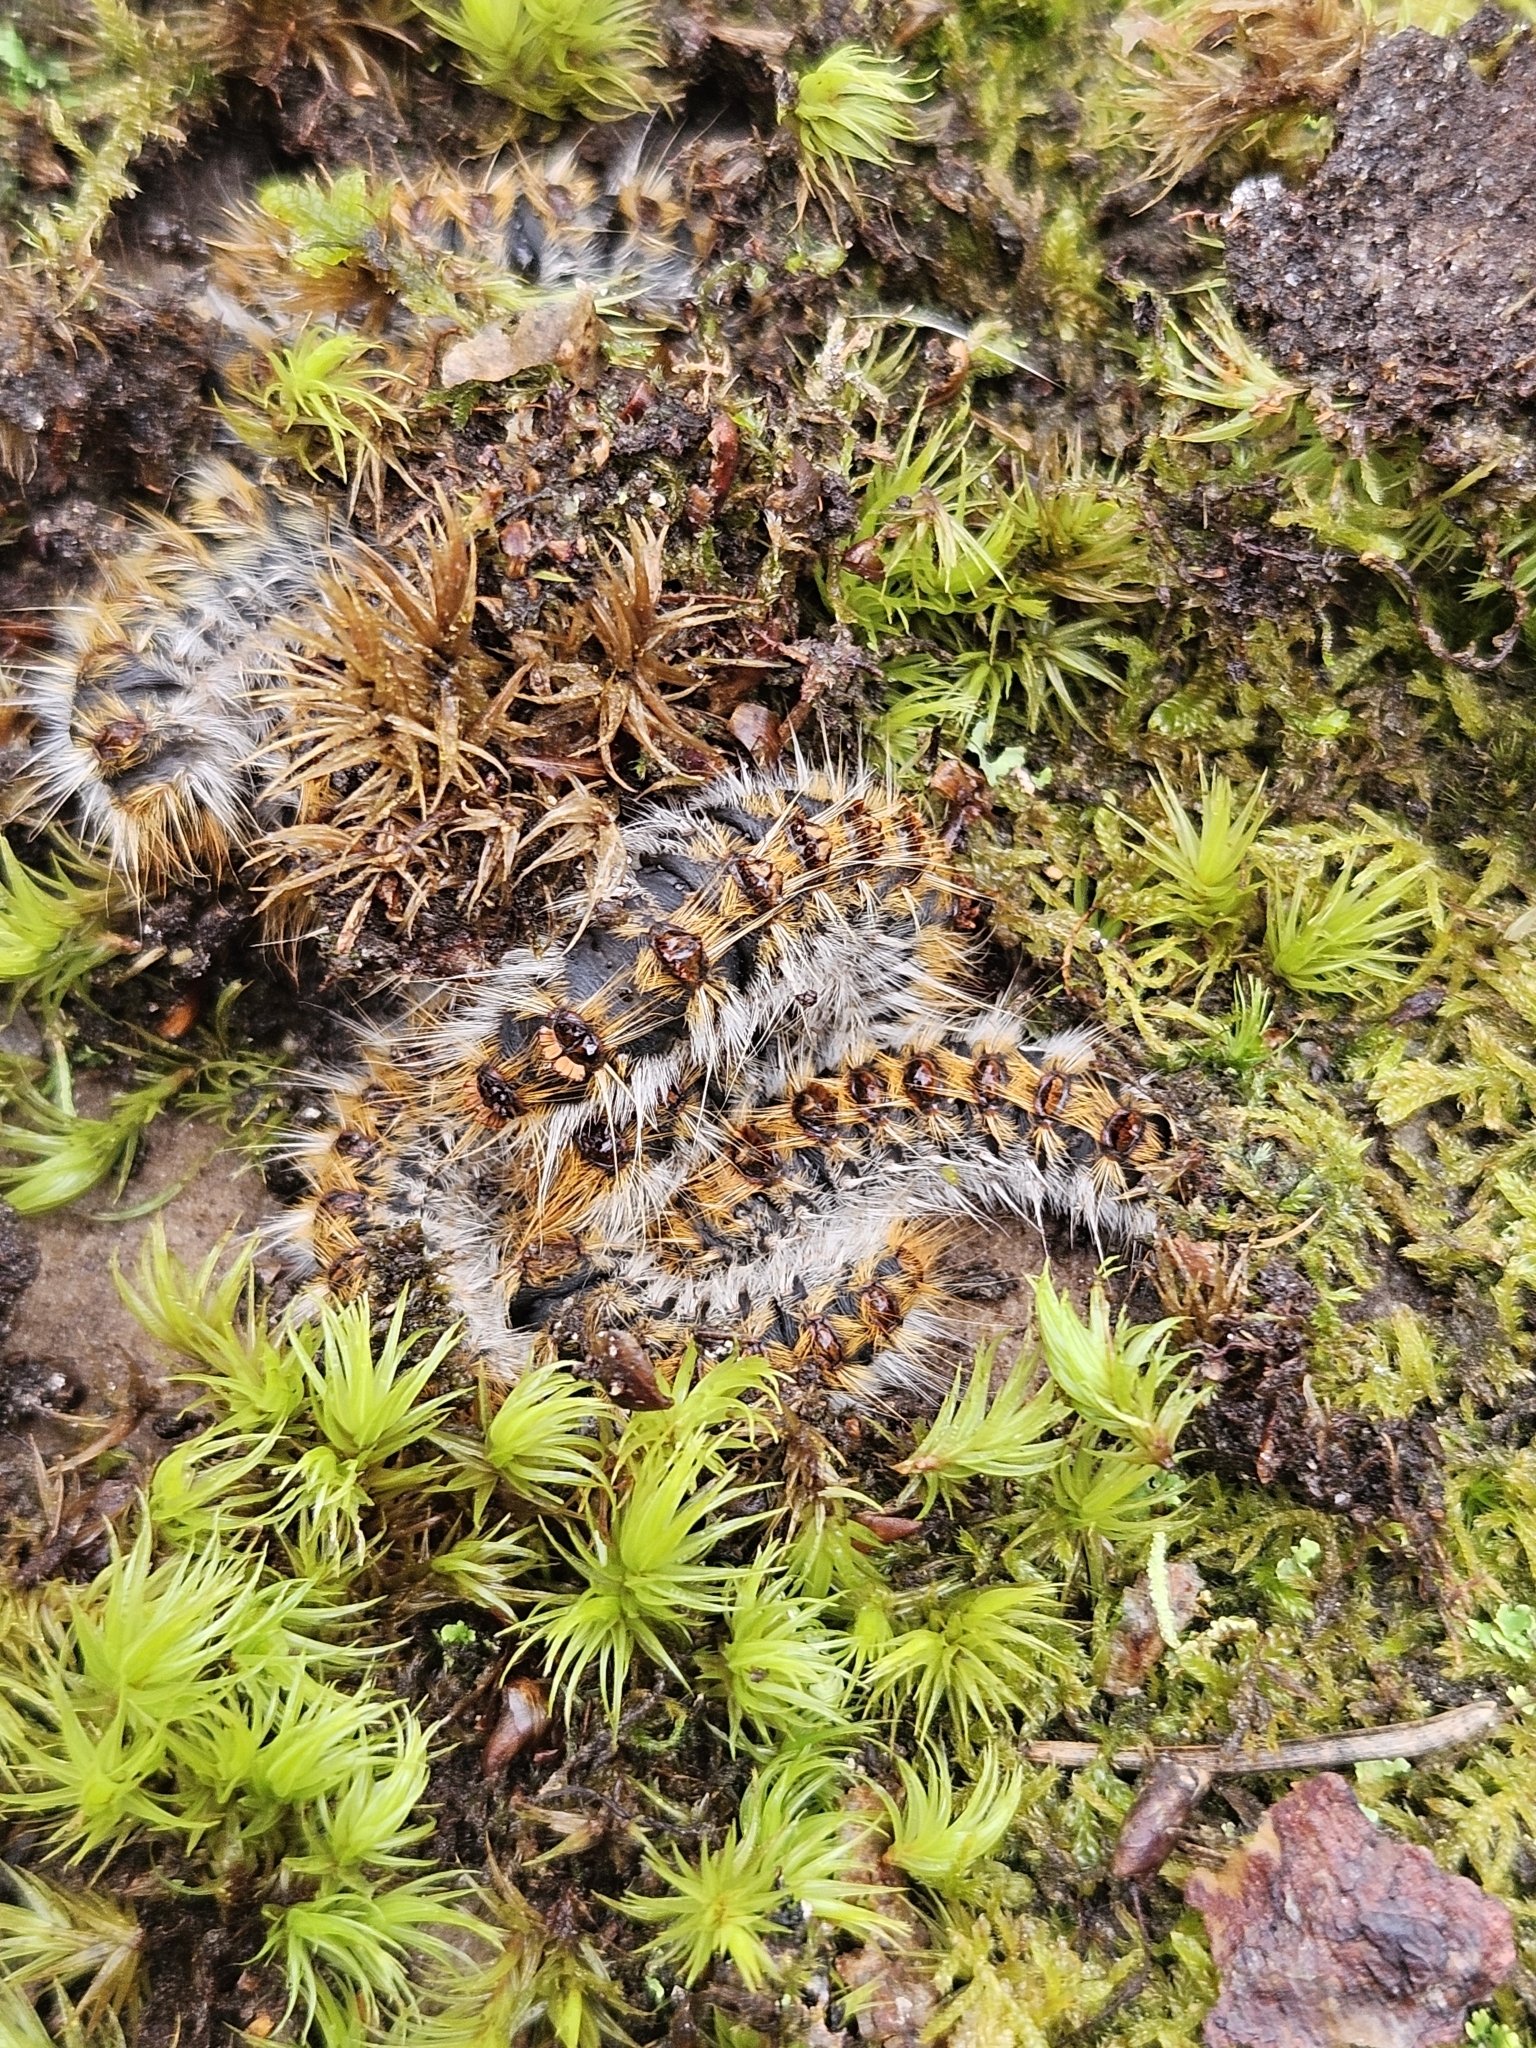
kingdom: Animalia
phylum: Arthropoda
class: Insecta
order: Lepidoptera
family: Notodontidae
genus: Thaumetopoea
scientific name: Thaumetopoea pityocampa
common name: Pine processionary
